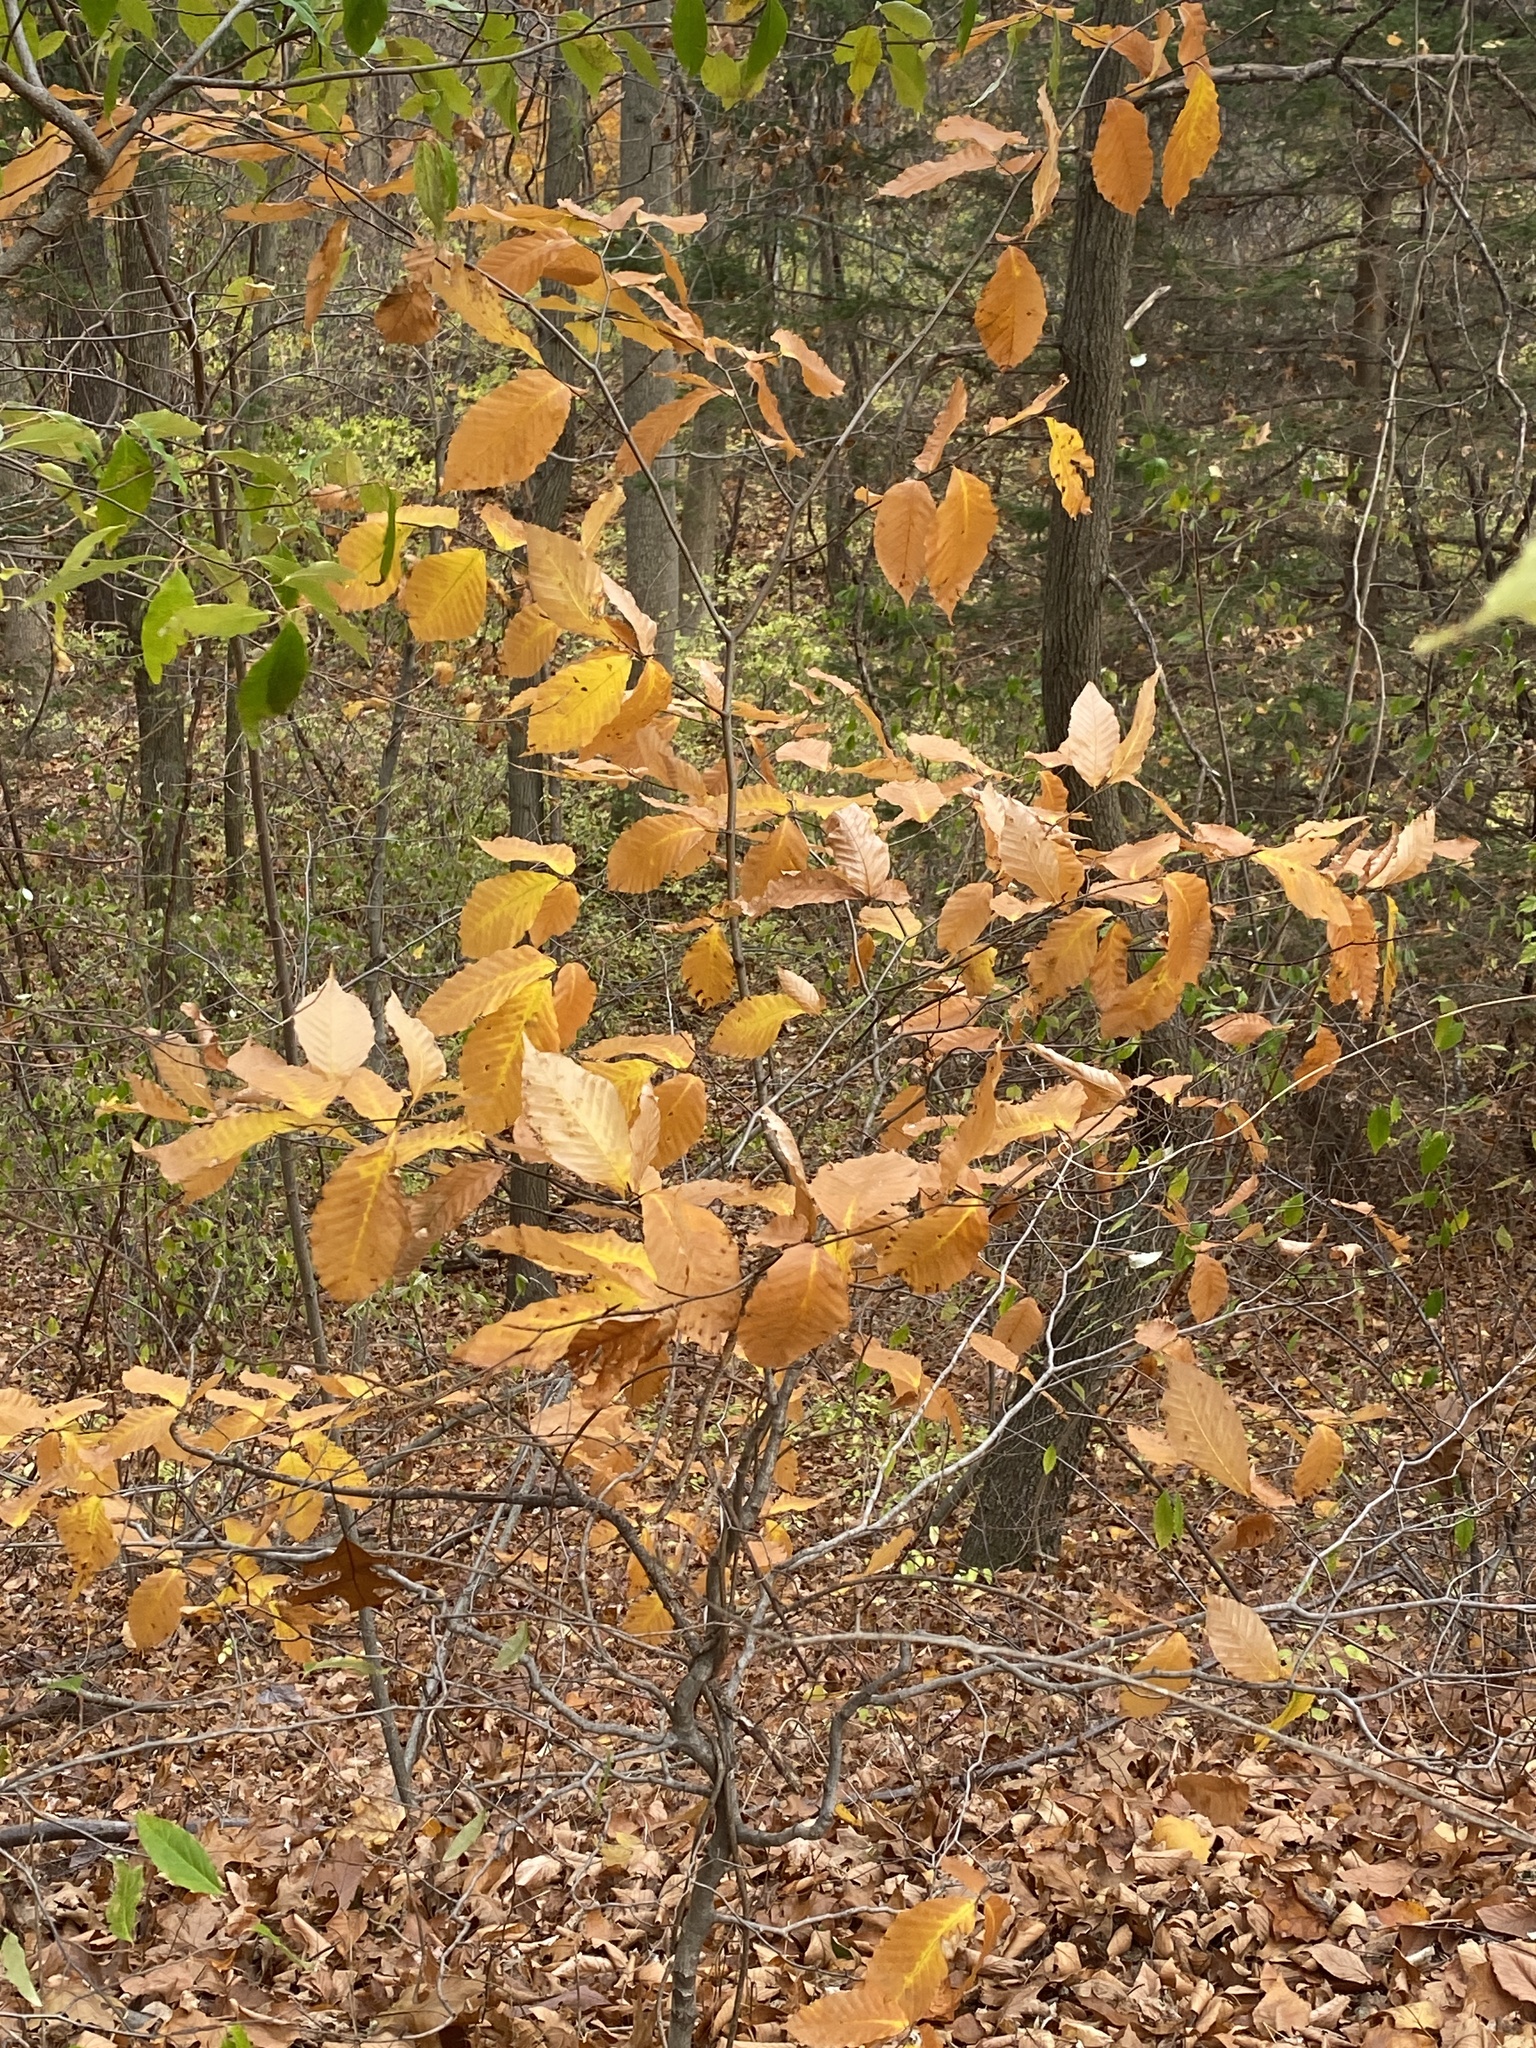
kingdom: Plantae
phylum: Tracheophyta
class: Magnoliopsida
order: Fagales
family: Fagaceae
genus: Fagus
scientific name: Fagus grandifolia
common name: American beech
